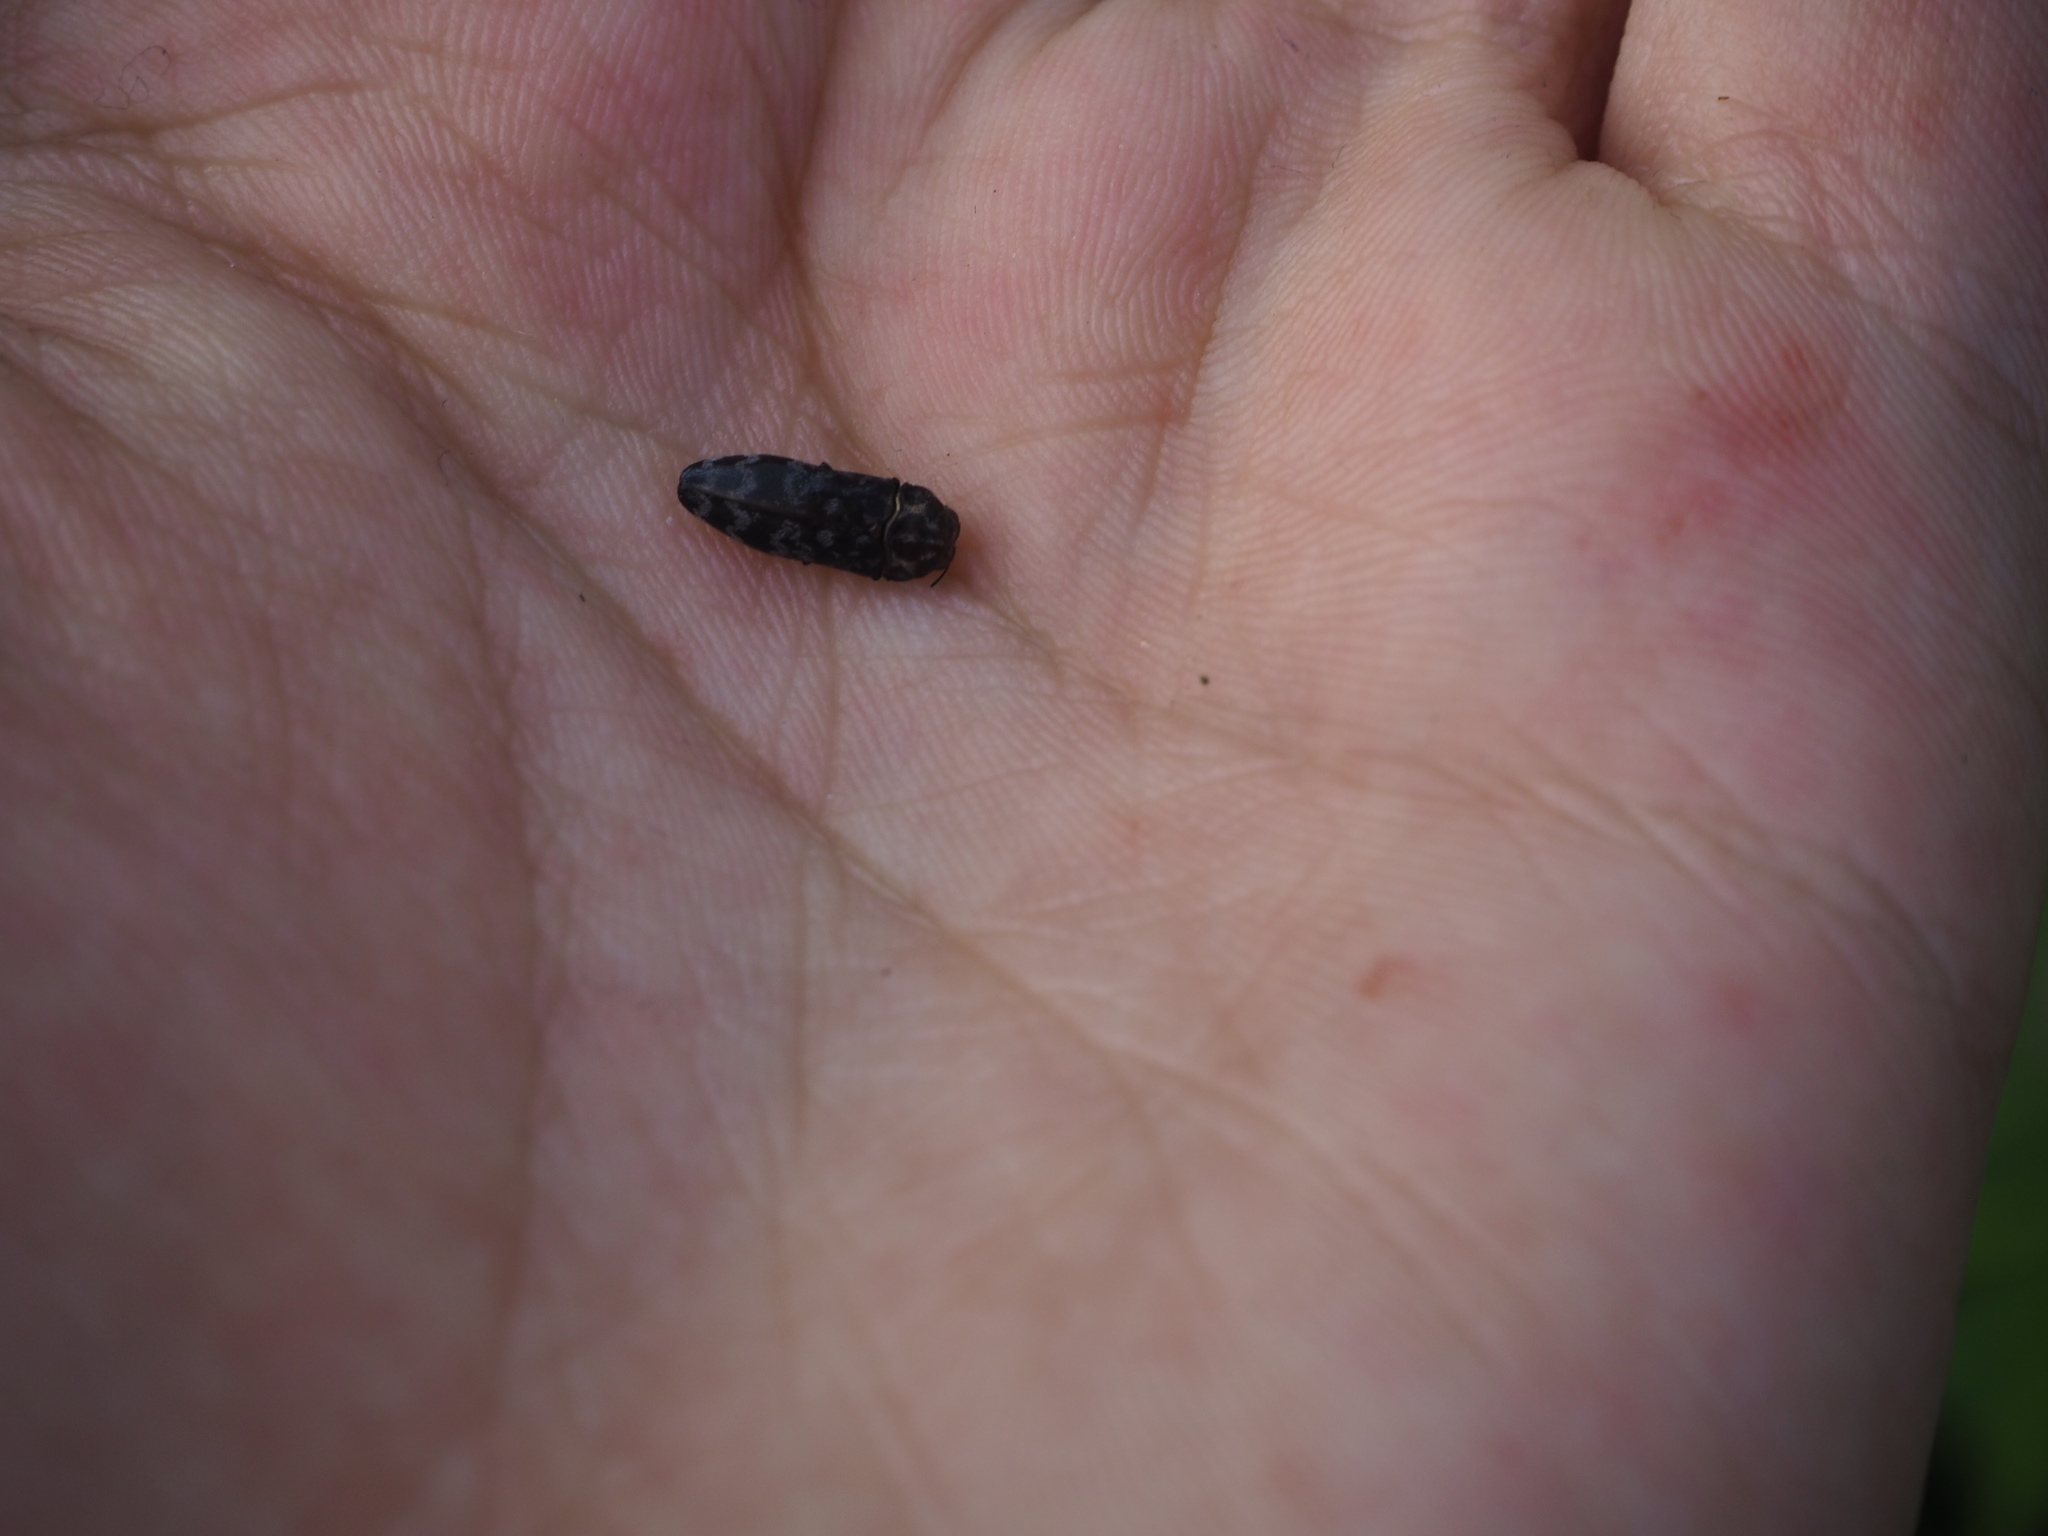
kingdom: Animalia
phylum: Arthropoda
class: Insecta
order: Coleoptera
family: Buprestidae
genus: Coraebus
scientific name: Coraebus rubi
